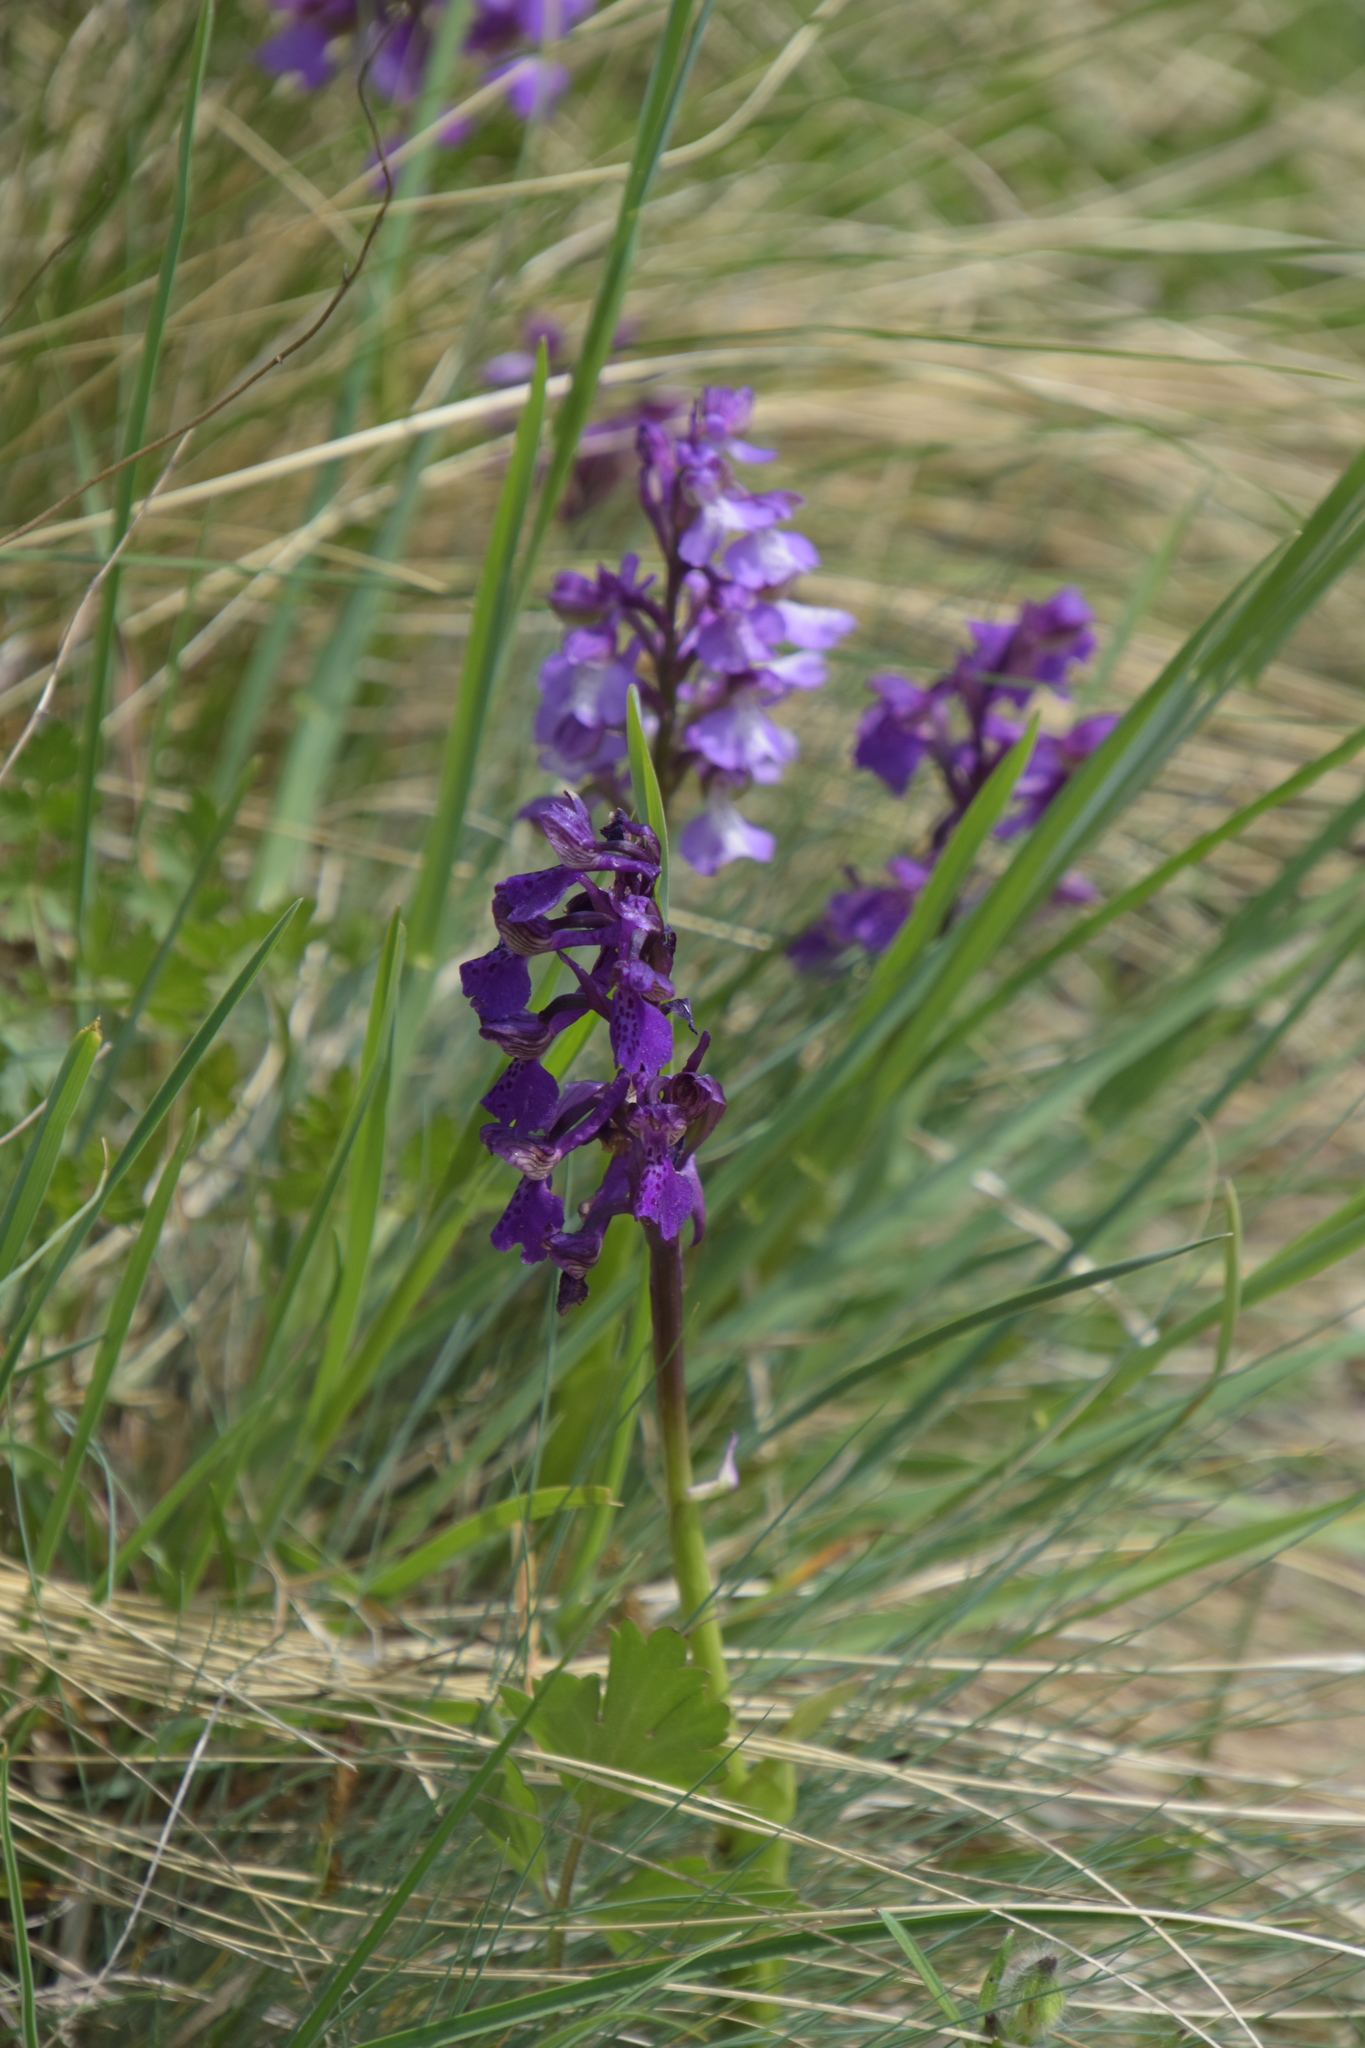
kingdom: Plantae
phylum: Tracheophyta
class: Liliopsida
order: Asparagales
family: Orchidaceae
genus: Anacamptis
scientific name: Anacamptis morio
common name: Green-winged orchid
